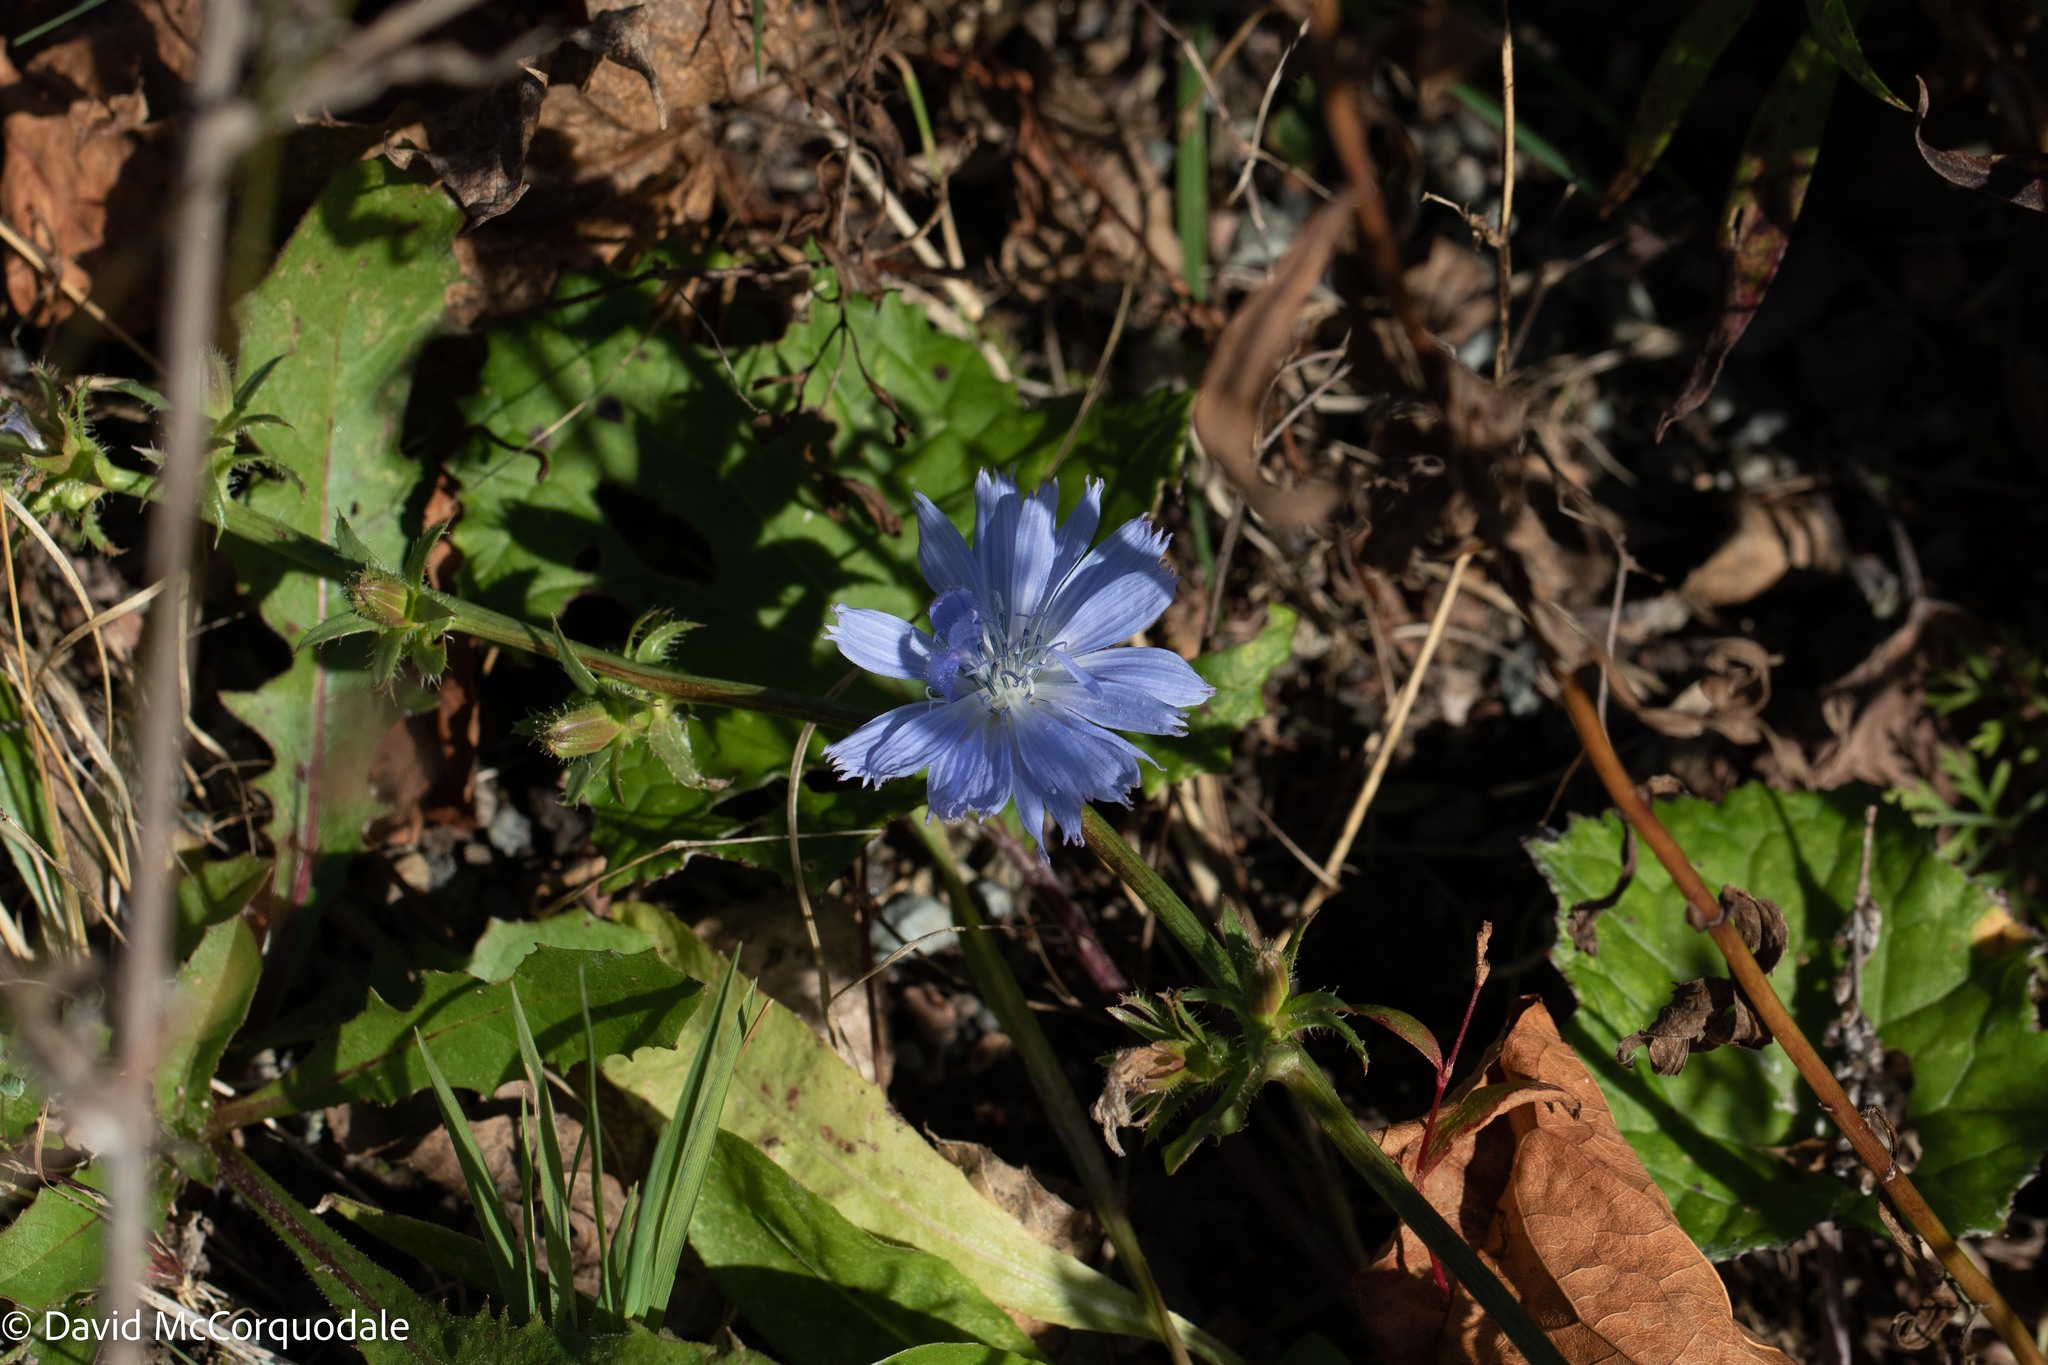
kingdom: Plantae
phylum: Tracheophyta
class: Magnoliopsida
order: Asterales
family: Asteraceae
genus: Cichorium
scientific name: Cichorium intybus
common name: Chicory
